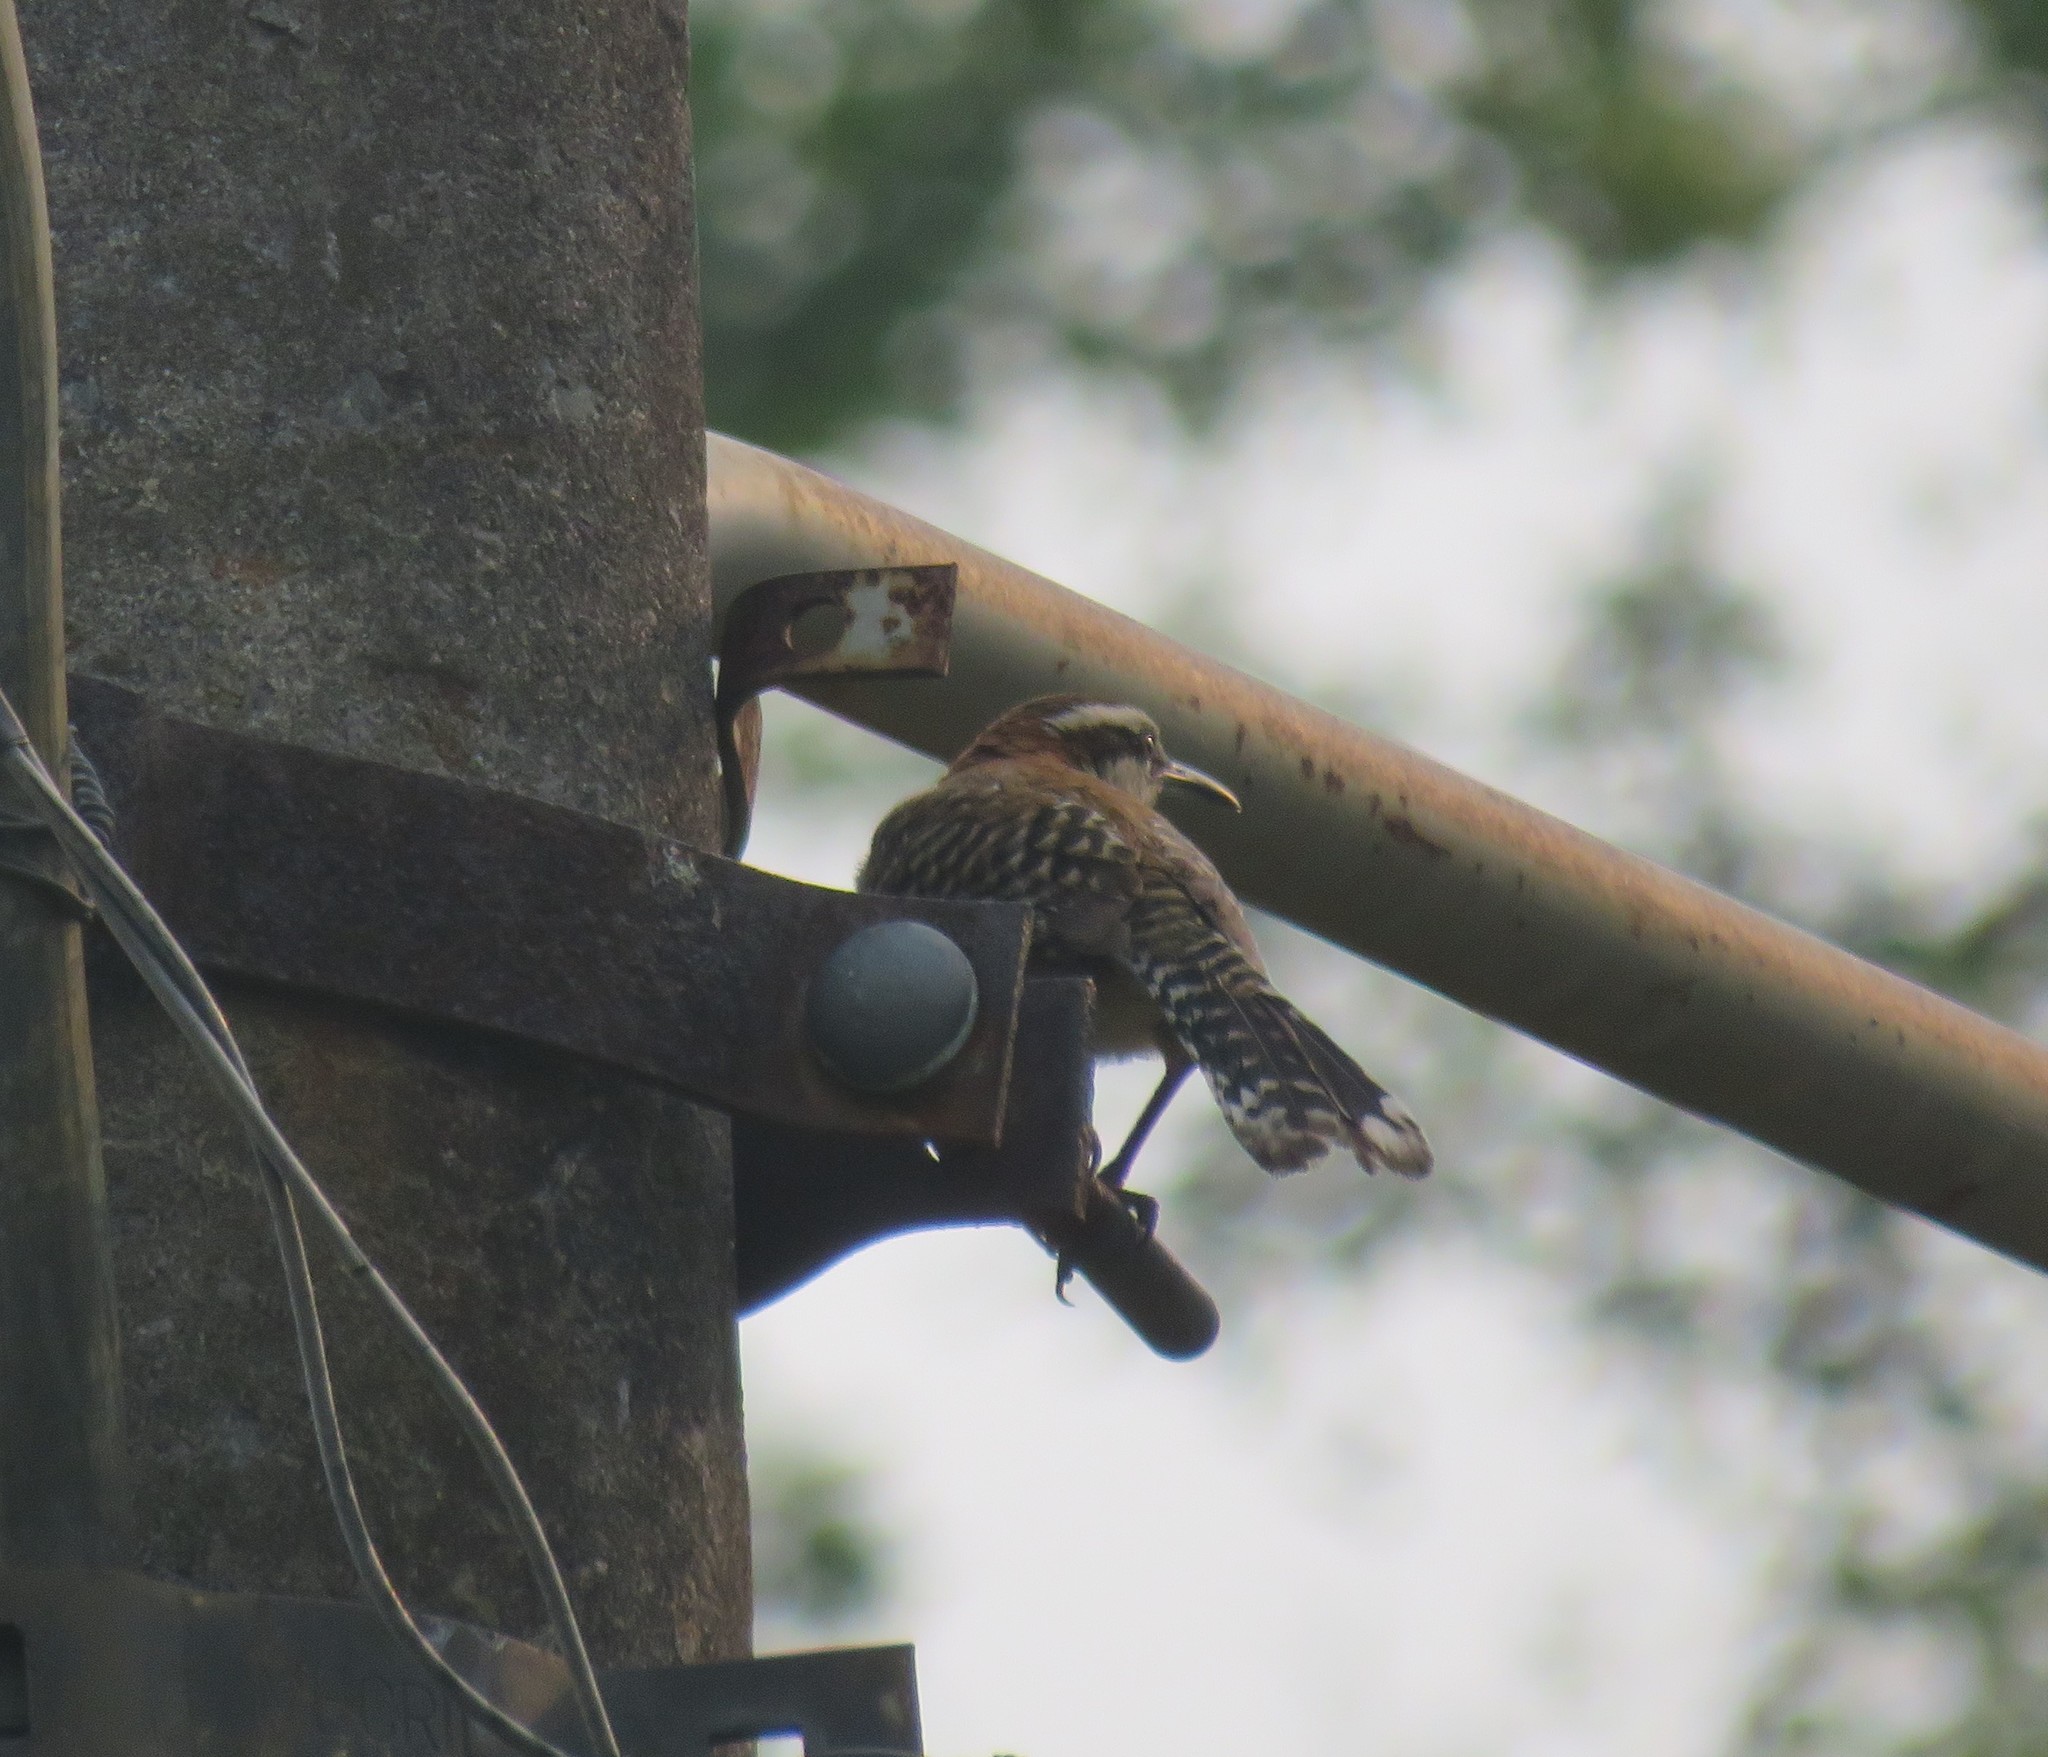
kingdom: Animalia
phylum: Chordata
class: Aves
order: Passeriformes
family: Troglodytidae
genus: Campylorhynchus
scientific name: Campylorhynchus rufinucha
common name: Rufous-naped wren
